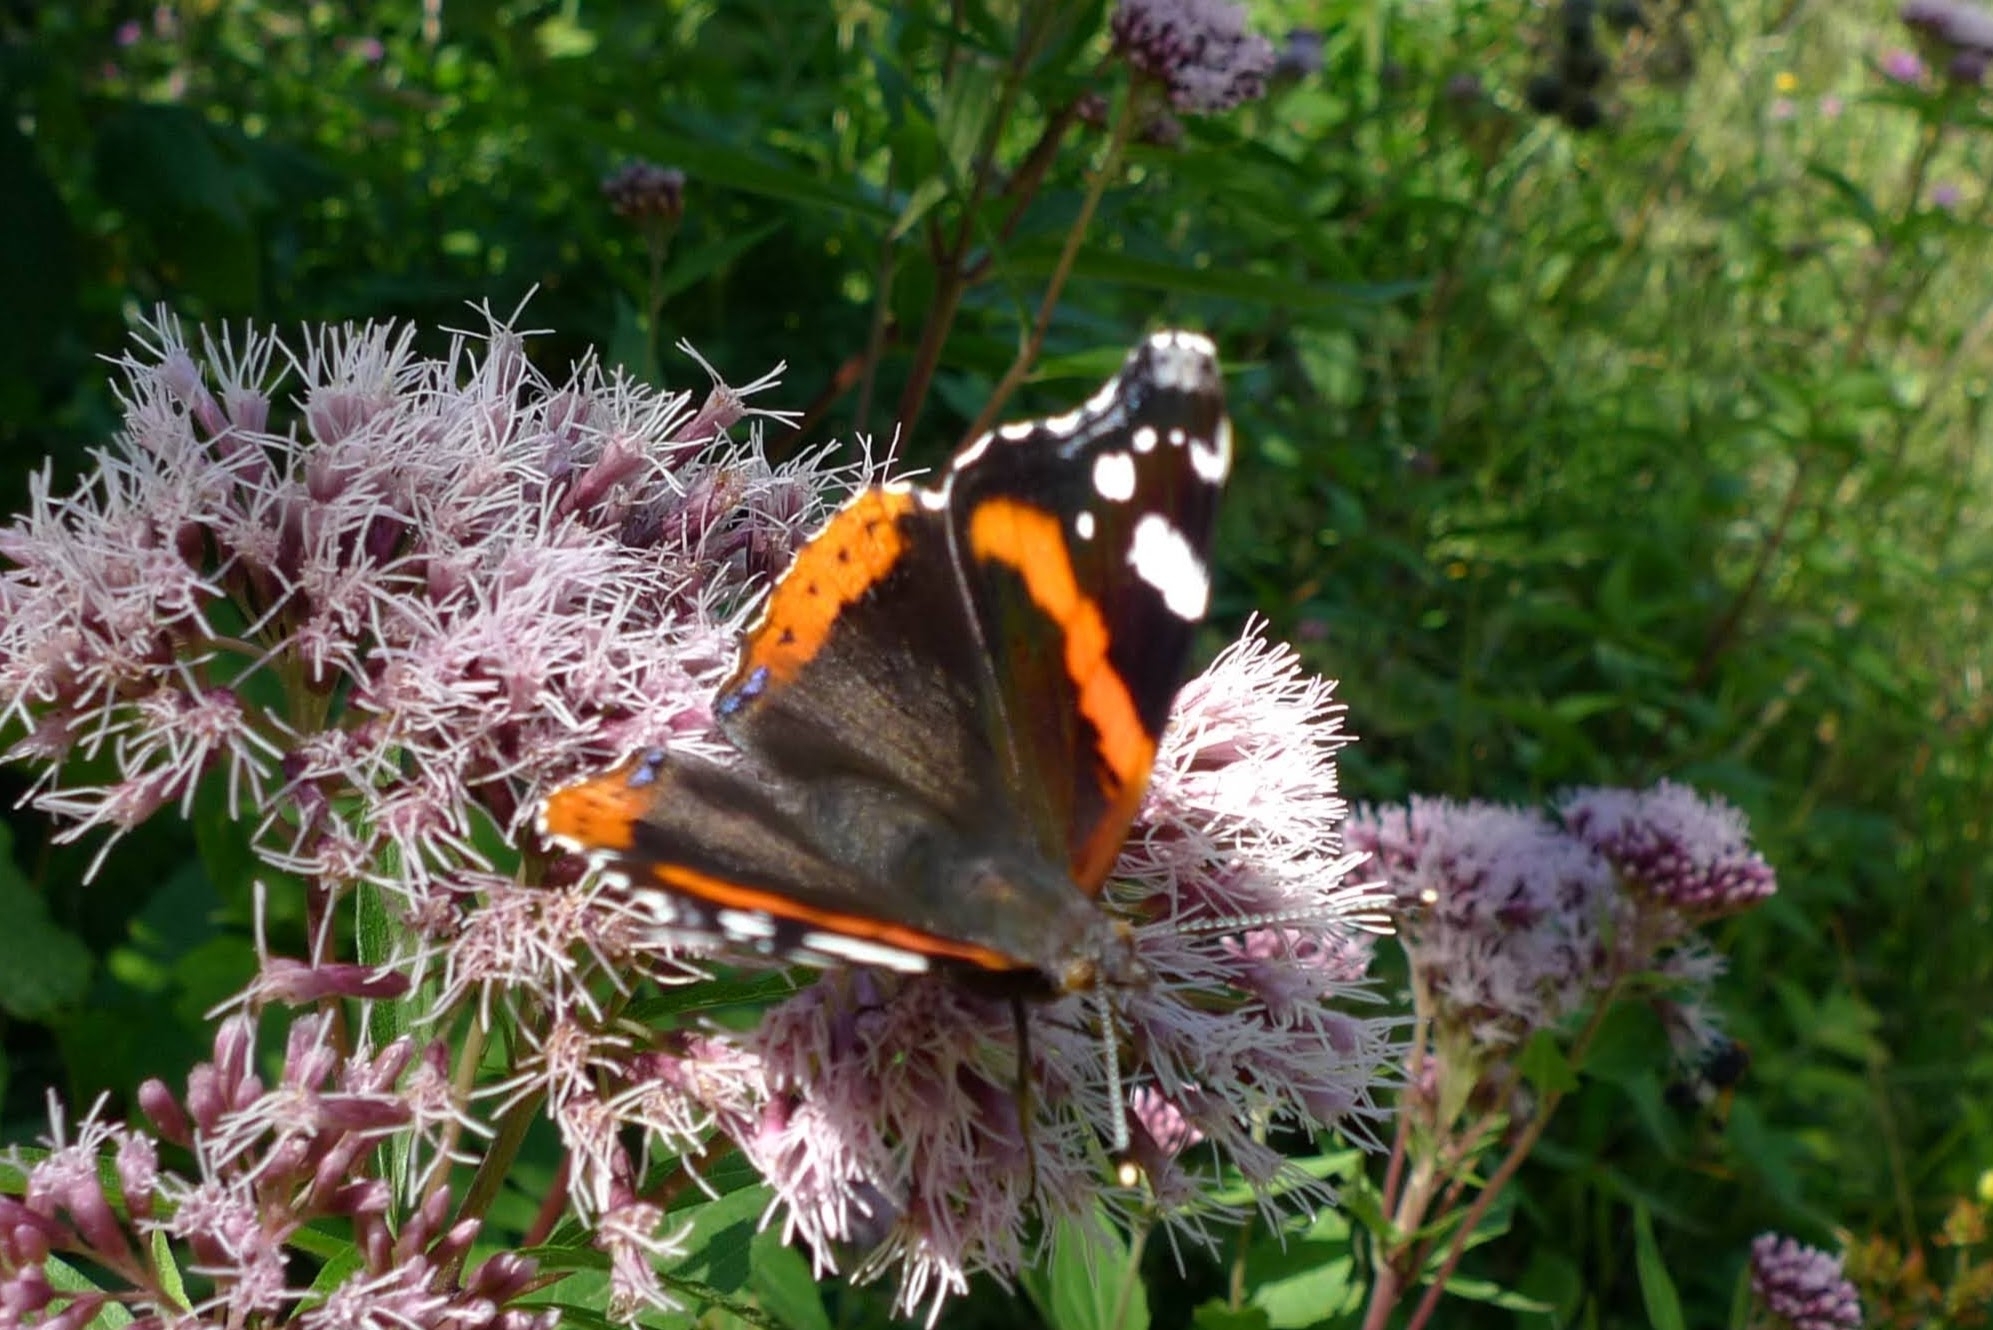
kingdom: Animalia
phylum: Arthropoda
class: Insecta
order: Lepidoptera
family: Nymphalidae
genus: Vanessa
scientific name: Vanessa atalanta
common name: Red admiral
